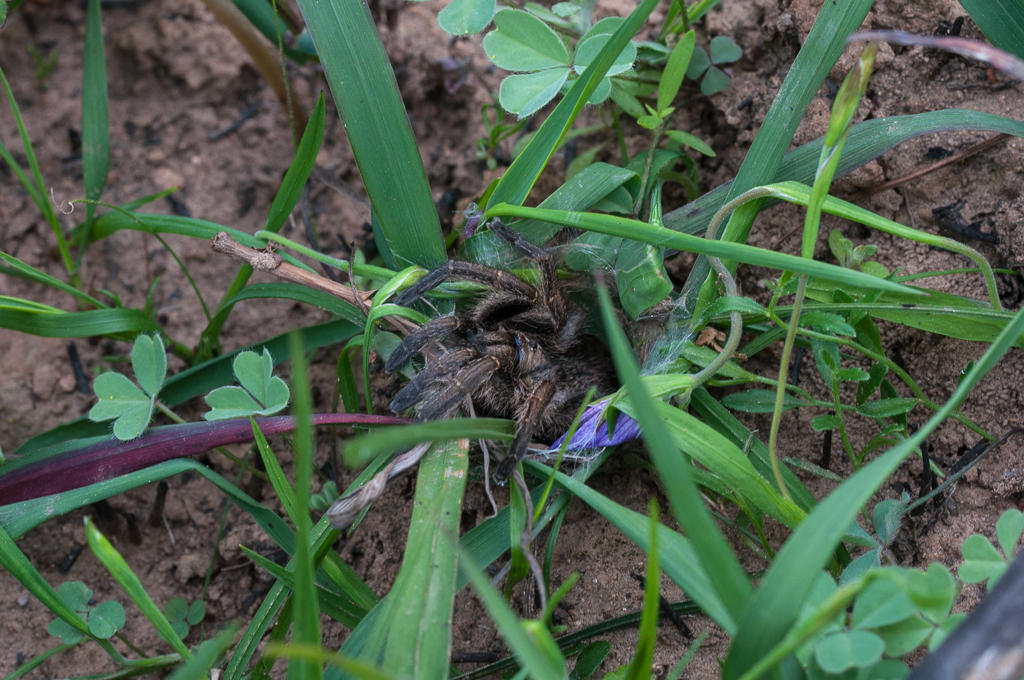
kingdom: Animalia
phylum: Arthropoda
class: Arachnida
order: Araneae
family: Theraphosidae
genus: Harpactirella
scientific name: Harpactirella lightfooti
